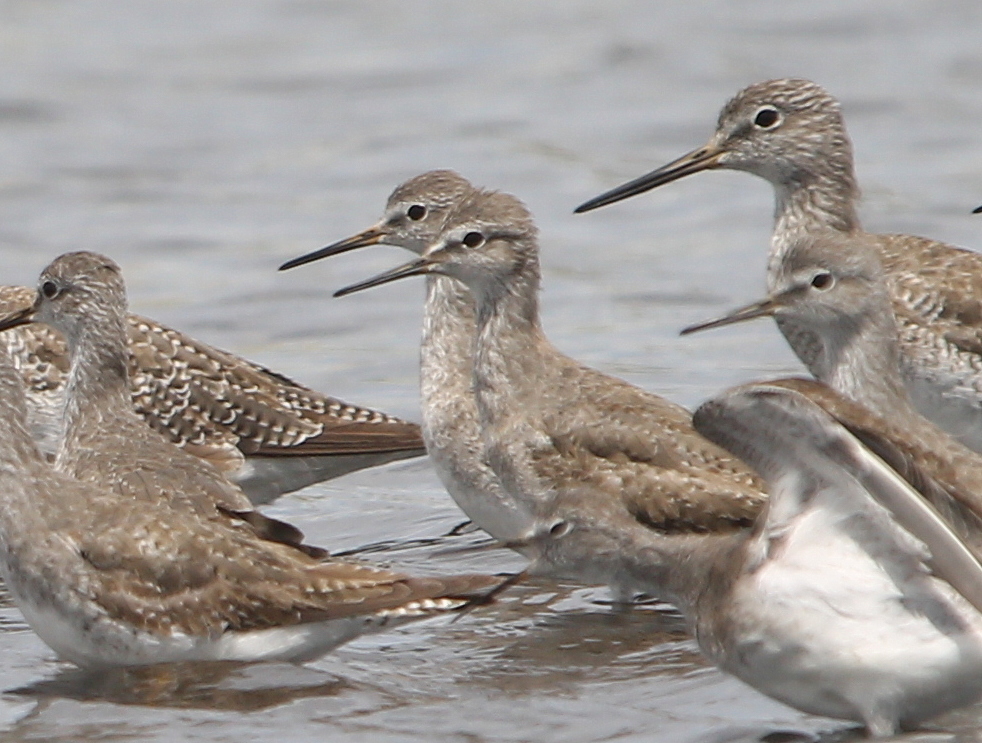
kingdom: Animalia
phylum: Chordata
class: Aves
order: Charadriiformes
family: Scolopacidae
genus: Tringa
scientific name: Tringa flavipes
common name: Lesser yellowlegs
